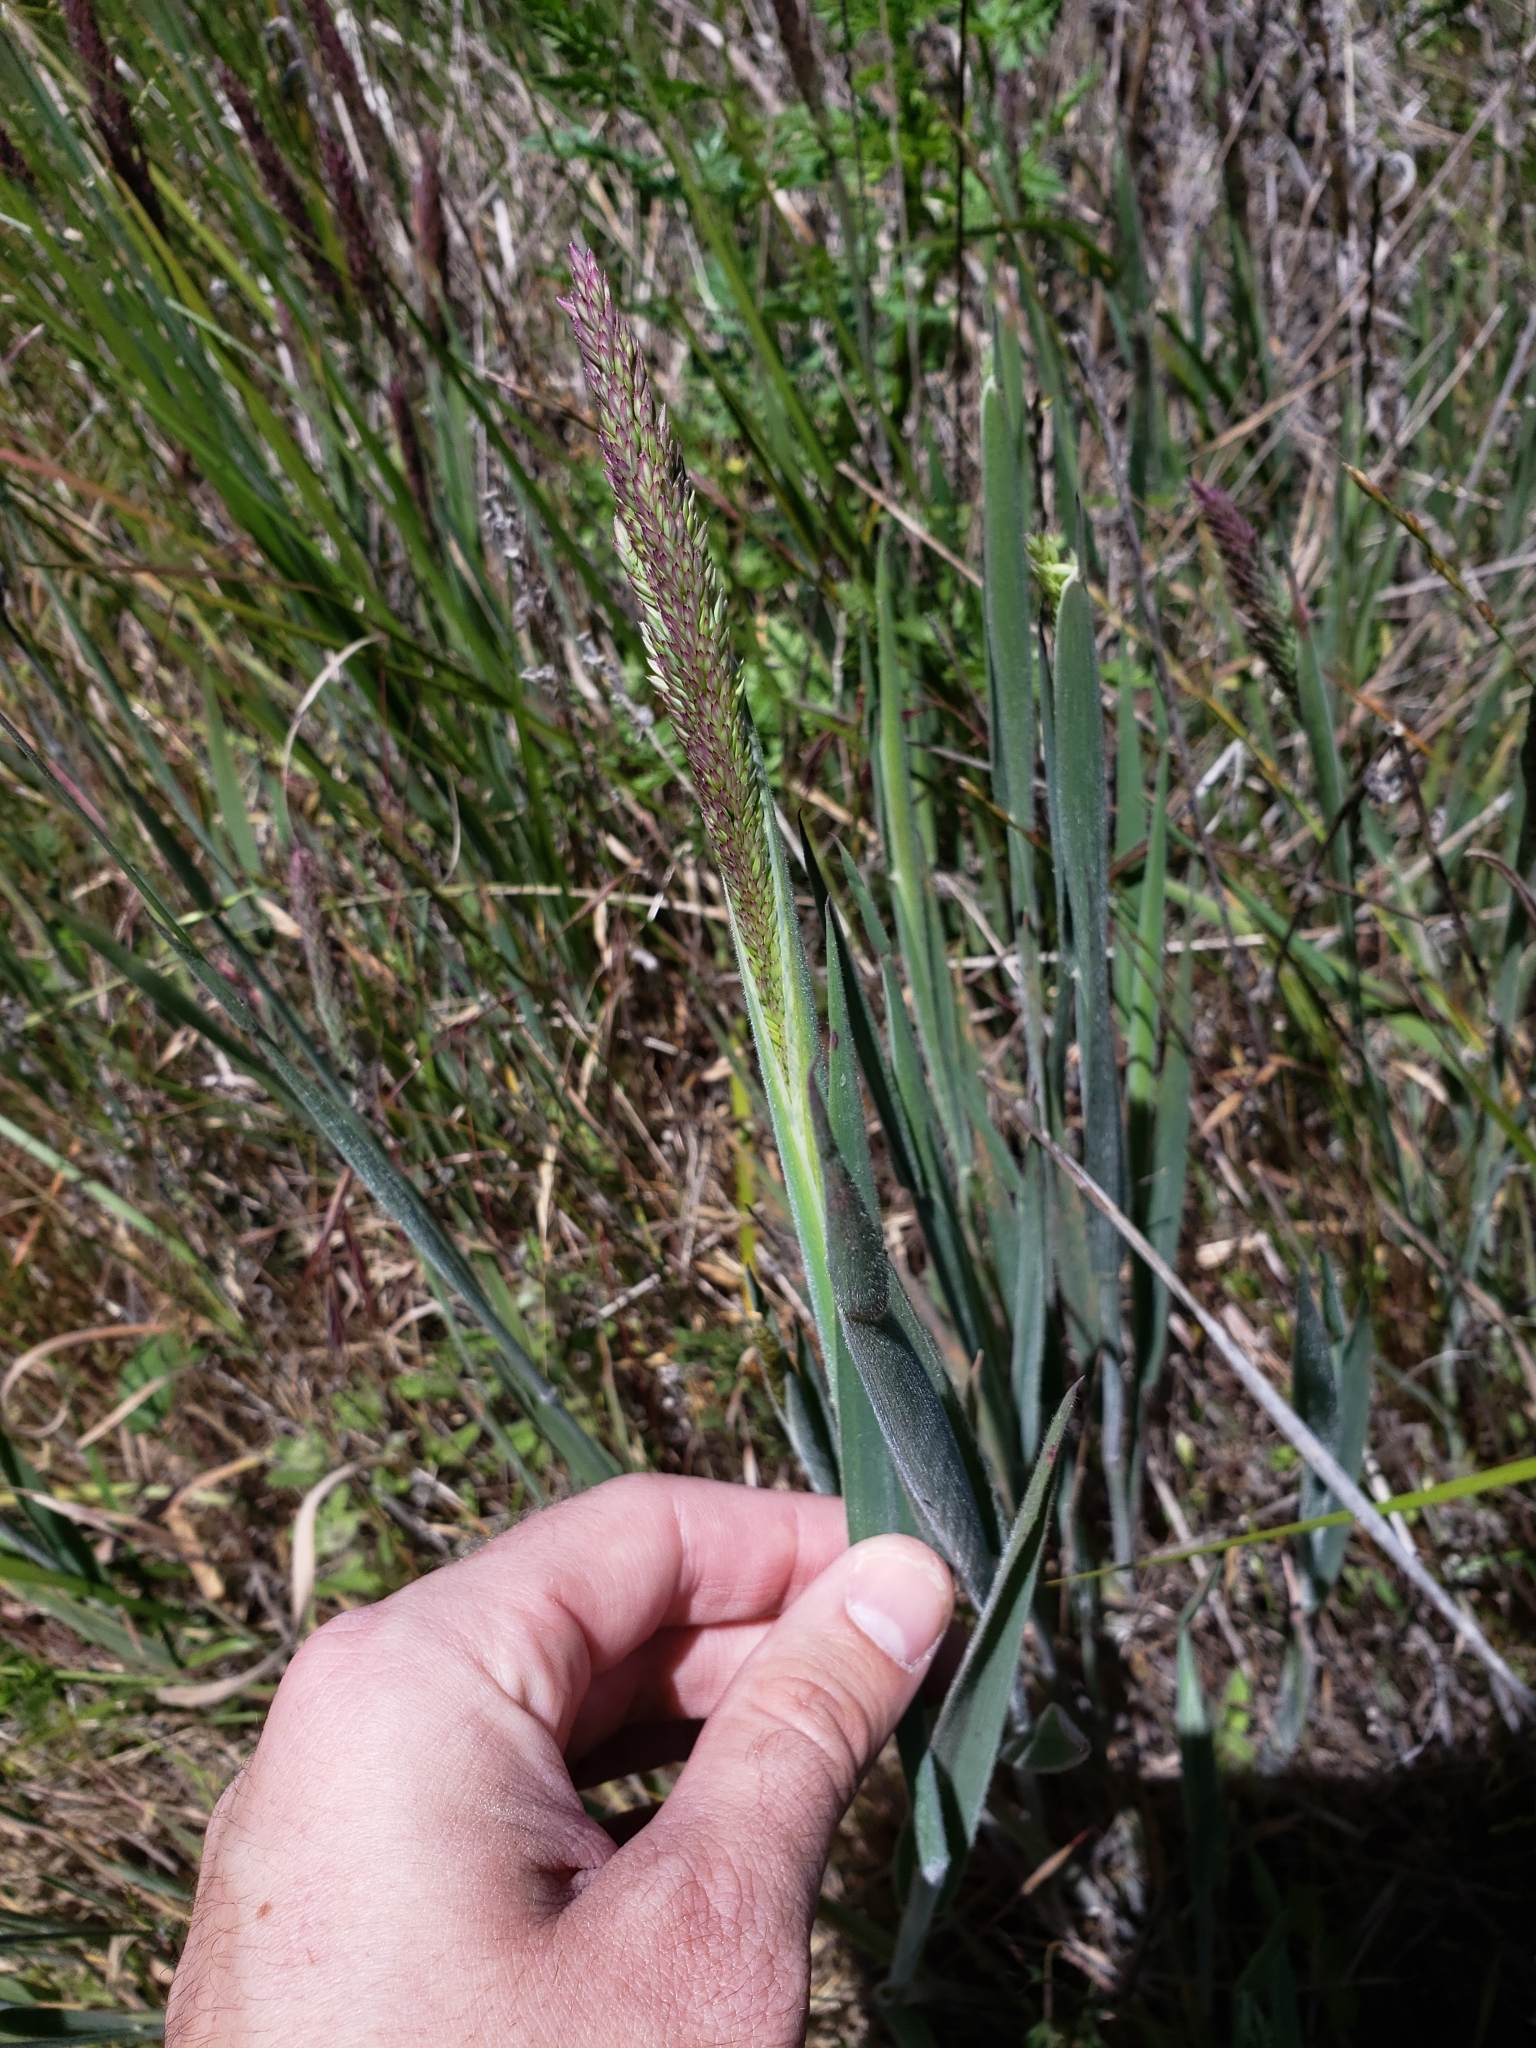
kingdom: Plantae
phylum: Tracheophyta
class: Liliopsida
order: Poales
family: Poaceae
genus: Holcus
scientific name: Holcus lanatus
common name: Yorkshire-fog
